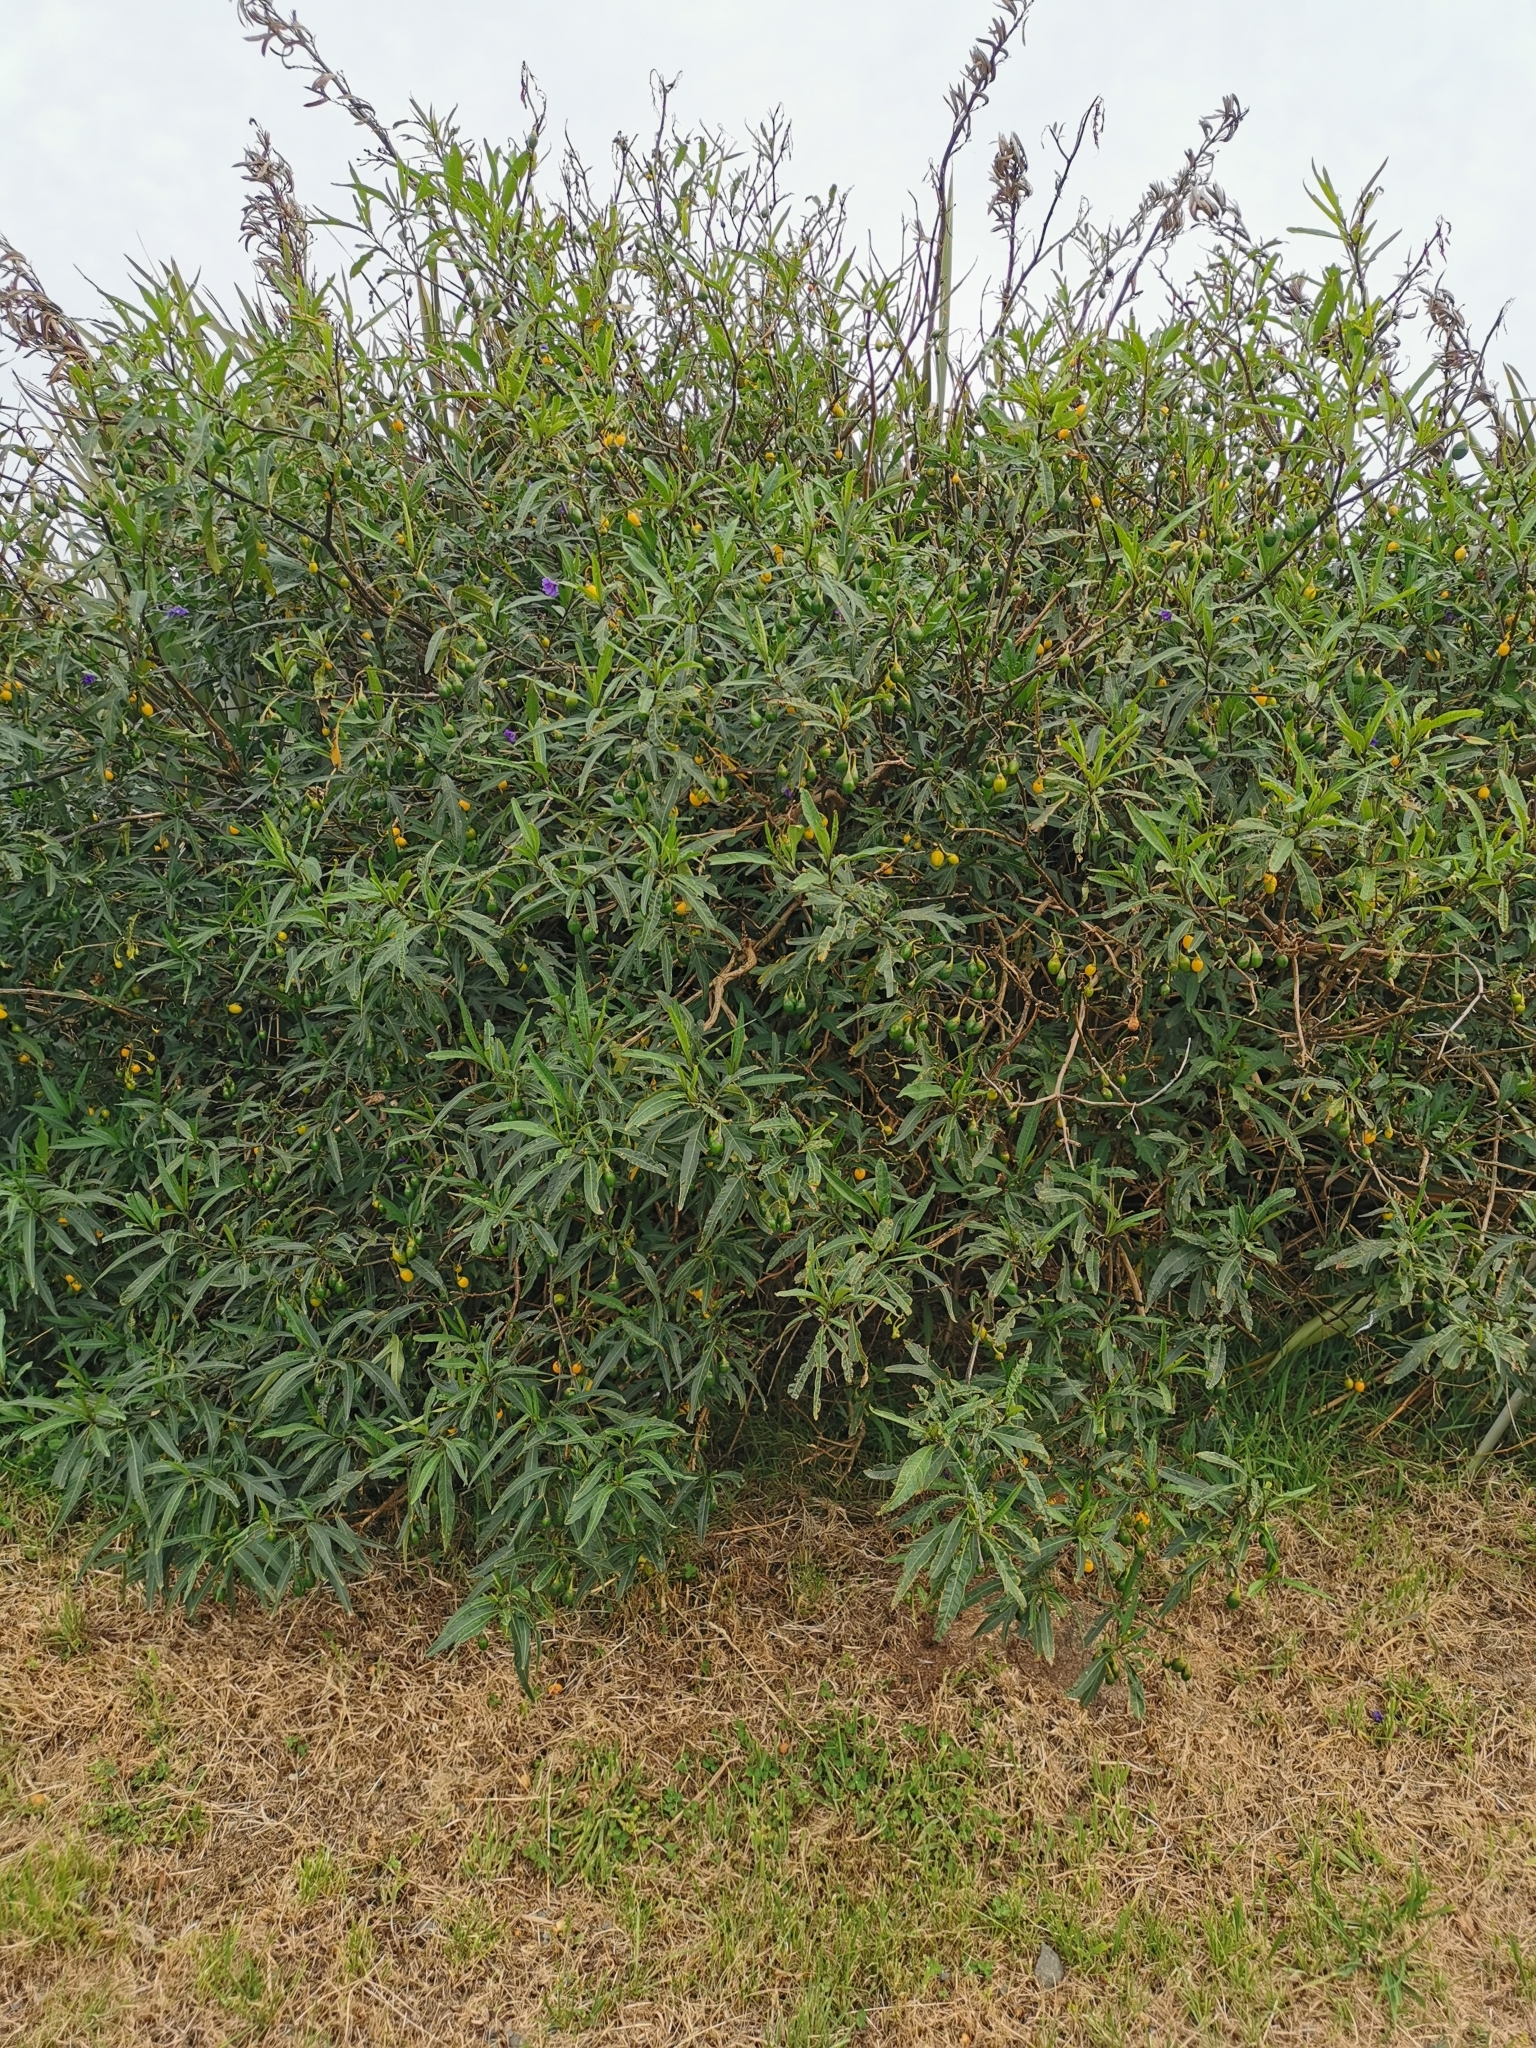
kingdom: Plantae
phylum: Tracheophyta
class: Magnoliopsida
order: Solanales
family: Solanaceae
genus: Solanum
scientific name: Solanum laciniatum
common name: Kangaroo-apple
